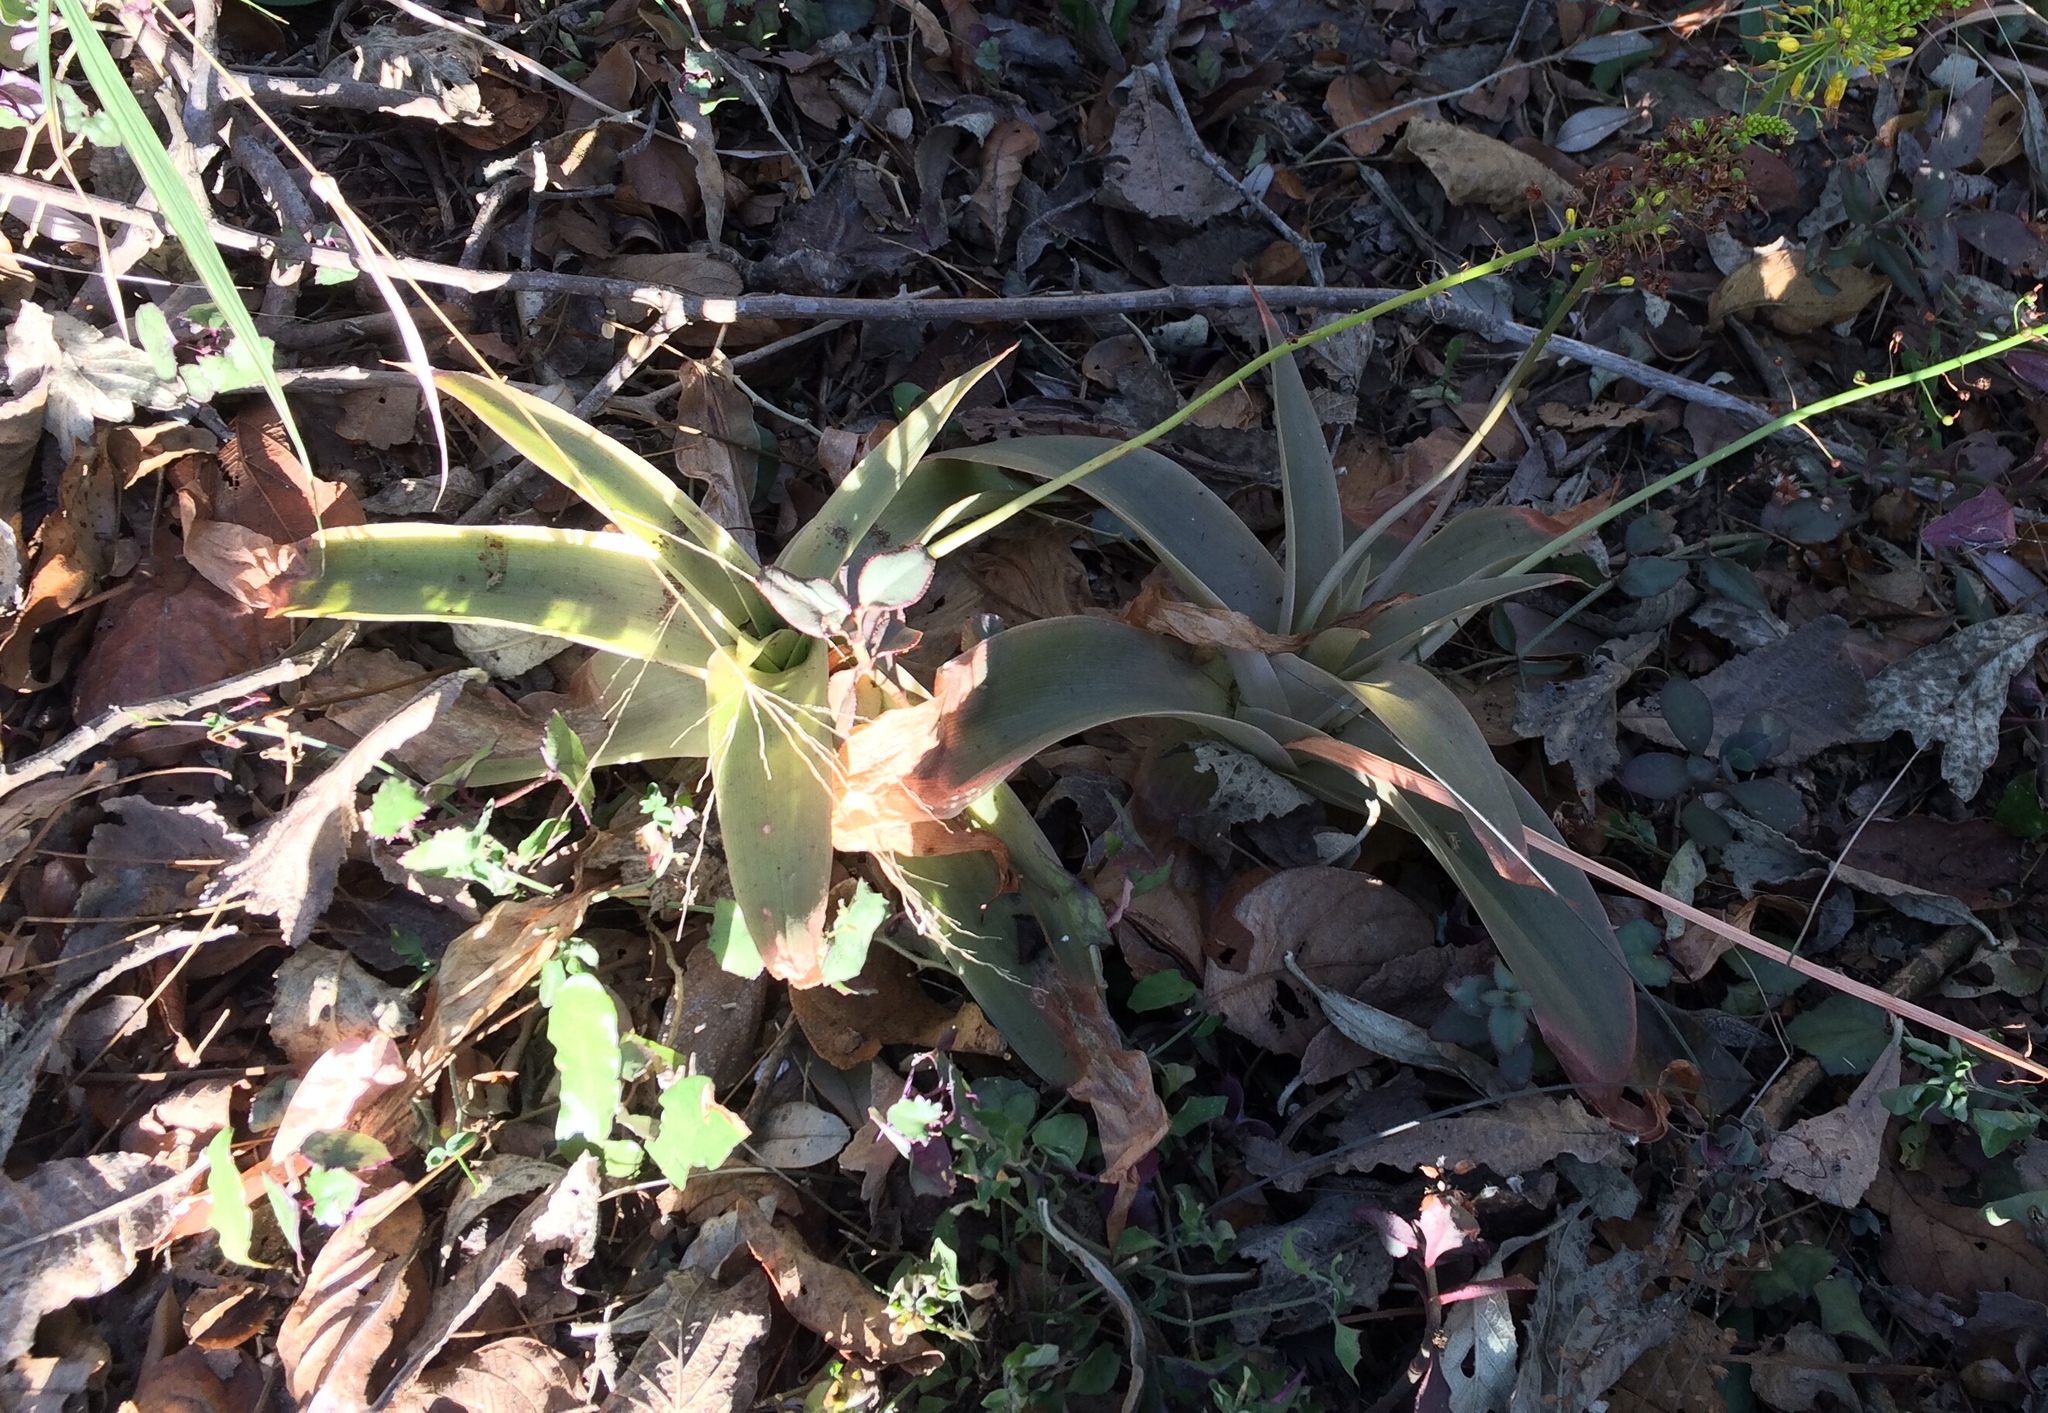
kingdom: Plantae
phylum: Tracheophyta
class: Liliopsida
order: Asparagales
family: Asphodelaceae
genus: Bulbine
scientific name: Bulbine latifolia
